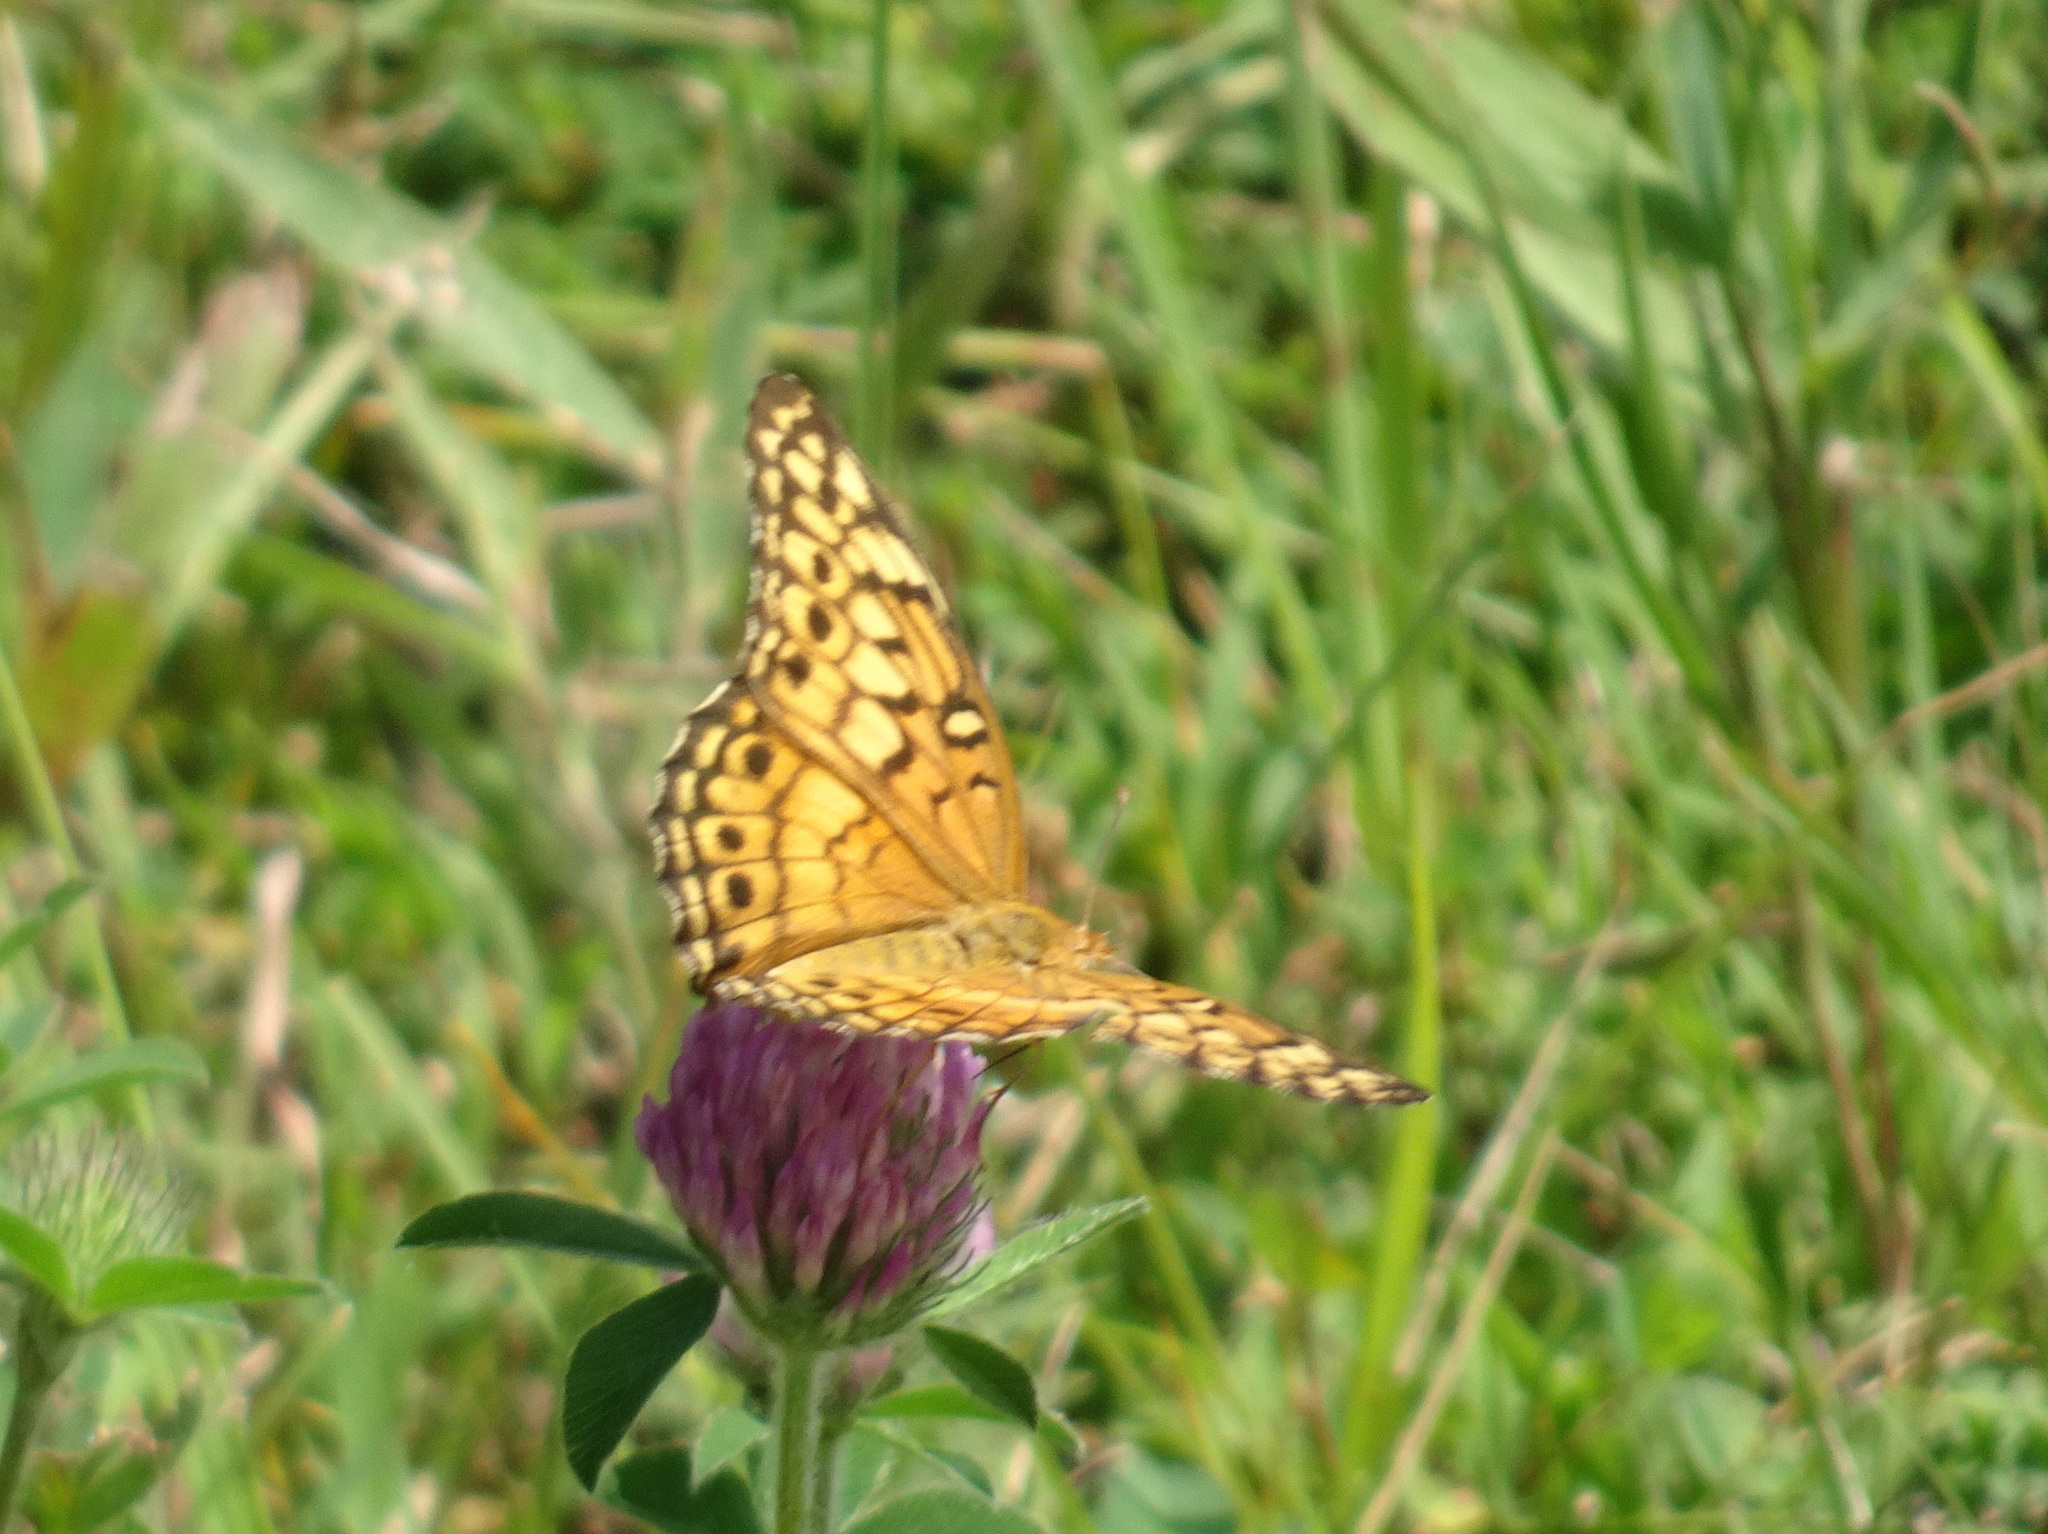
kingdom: Animalia
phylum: Arthropoda
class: Insecta
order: Lepidoptera
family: Nymphalidae
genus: Euptoieta
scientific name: Euptoieta claudia
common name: Variegated fritillary
